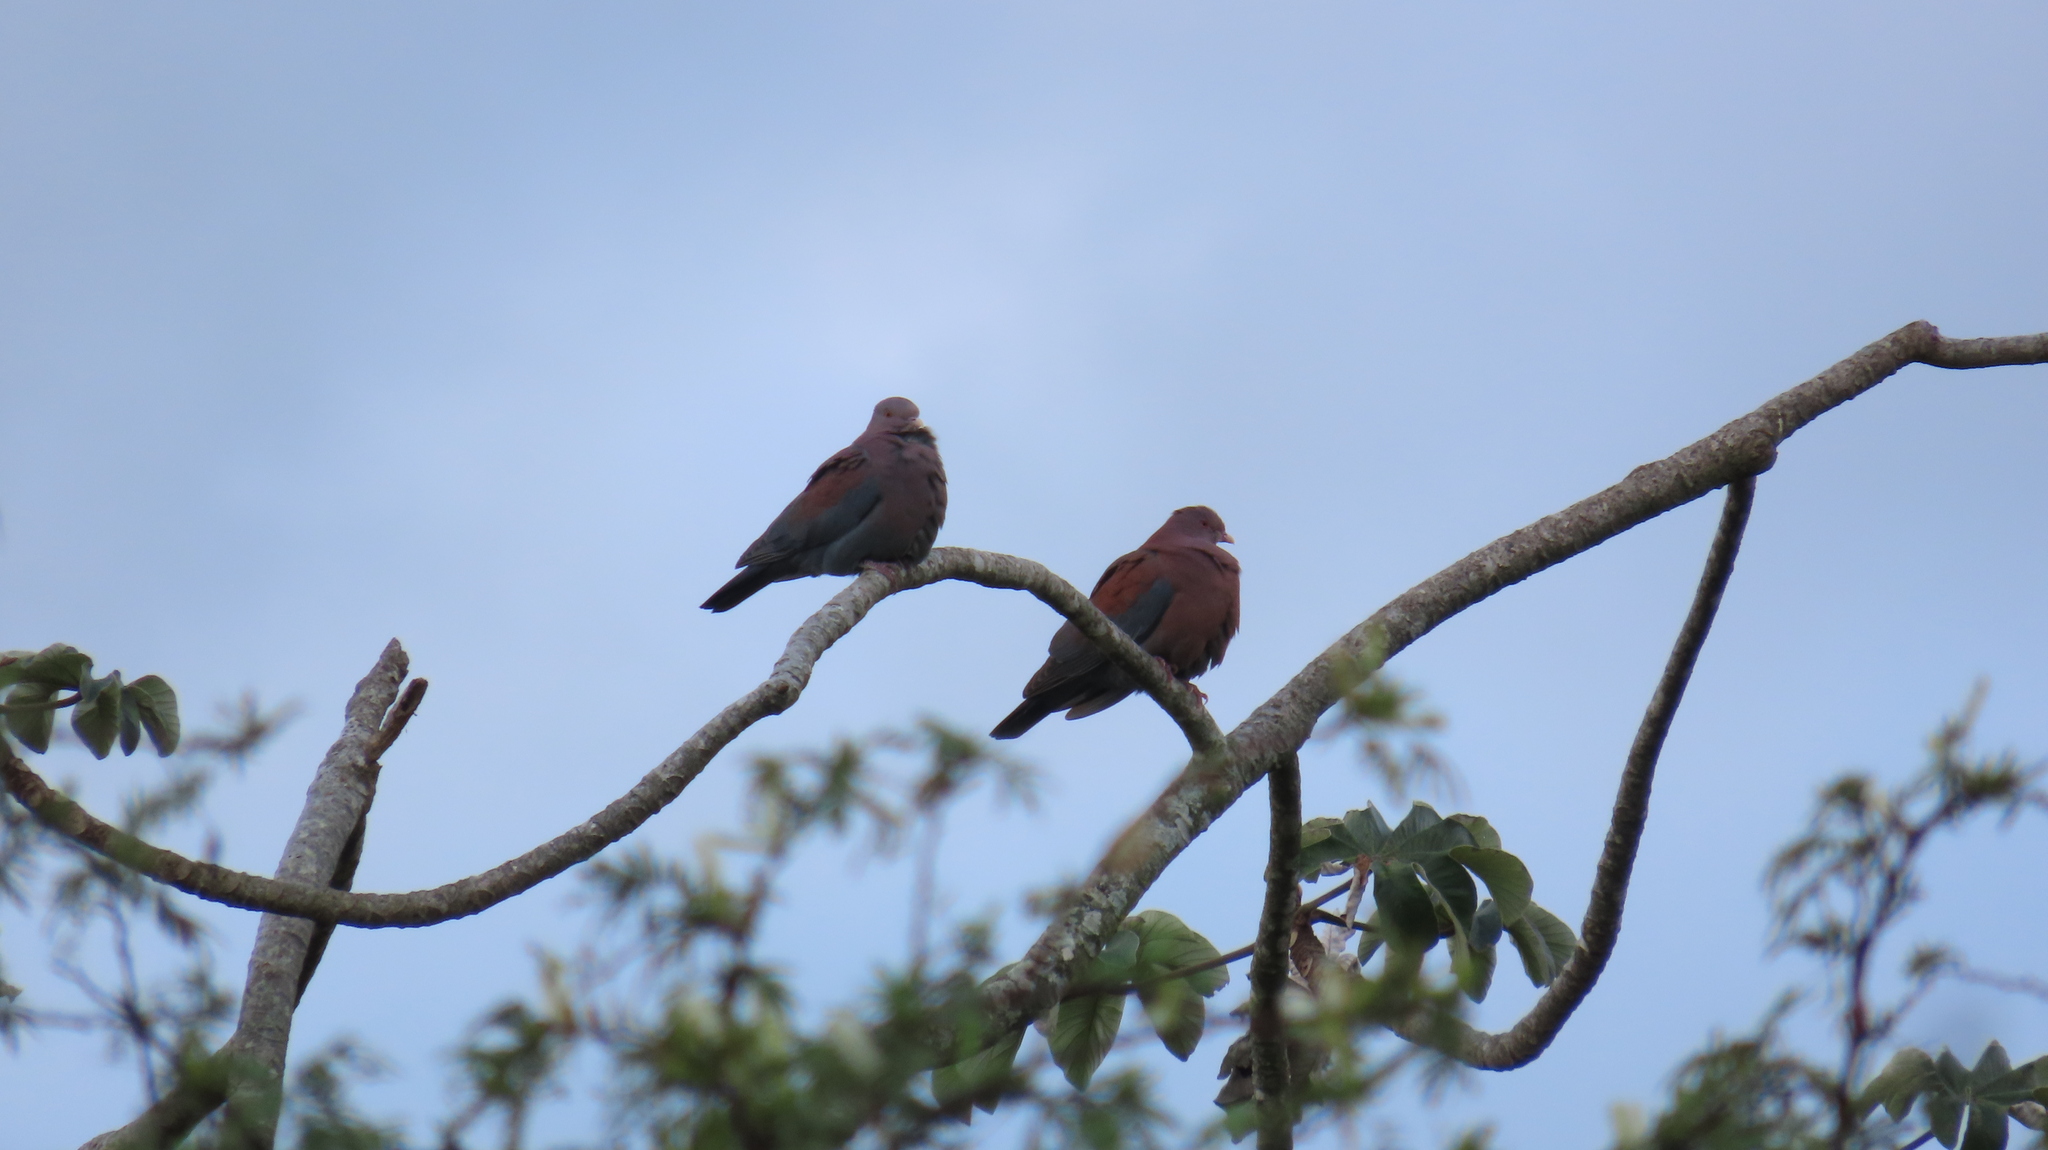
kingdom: Animalia
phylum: Chordata
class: Aves
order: Columbiformes
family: Columbidae
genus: Patagioenas
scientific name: Patagioenas flavirostris
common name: Red-billed pigeon
